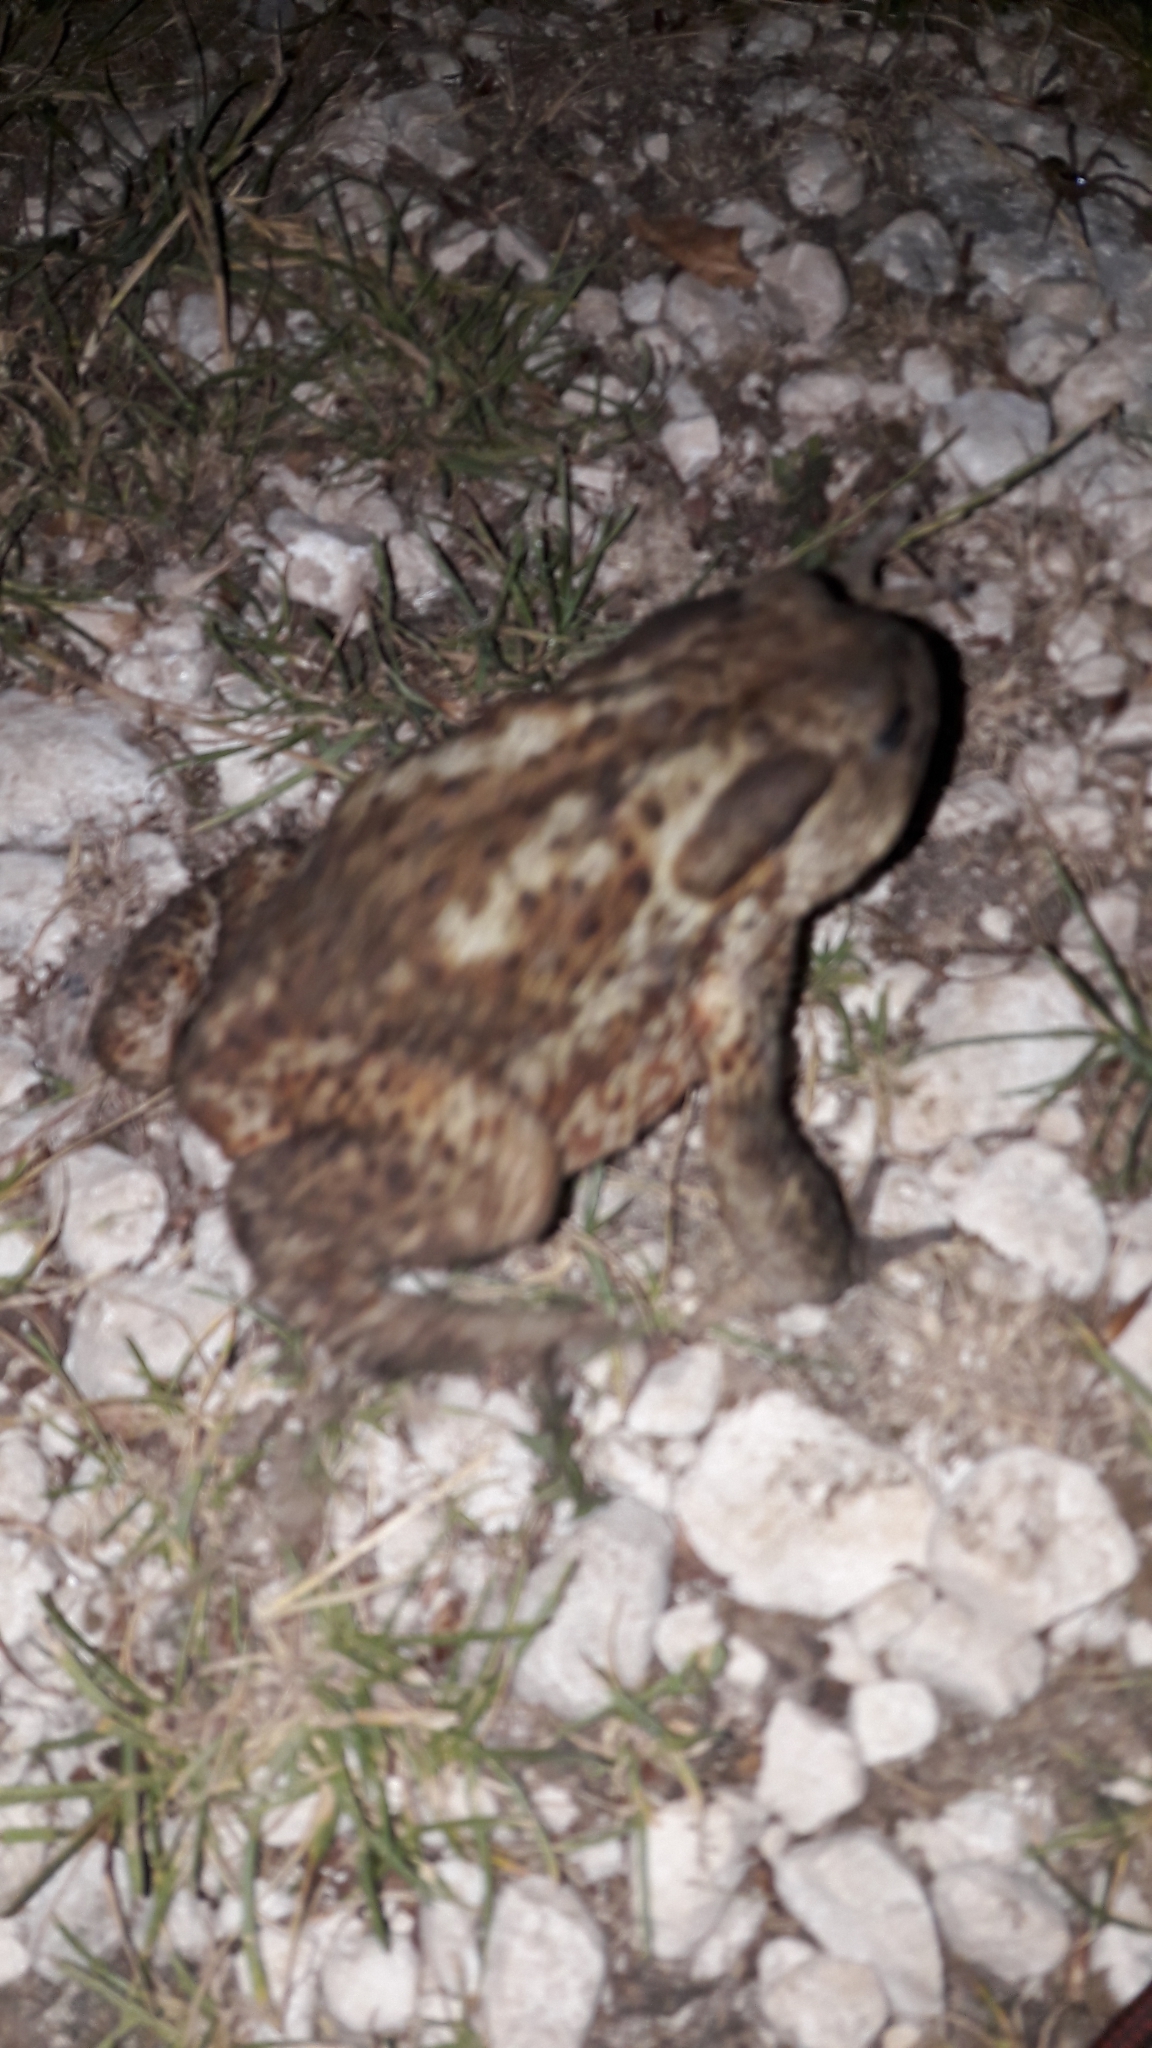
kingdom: Animalia
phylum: Chordata
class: Amphibia
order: Anura
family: Bufonidae
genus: Bufo
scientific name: Bufo bufo
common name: Common toad
